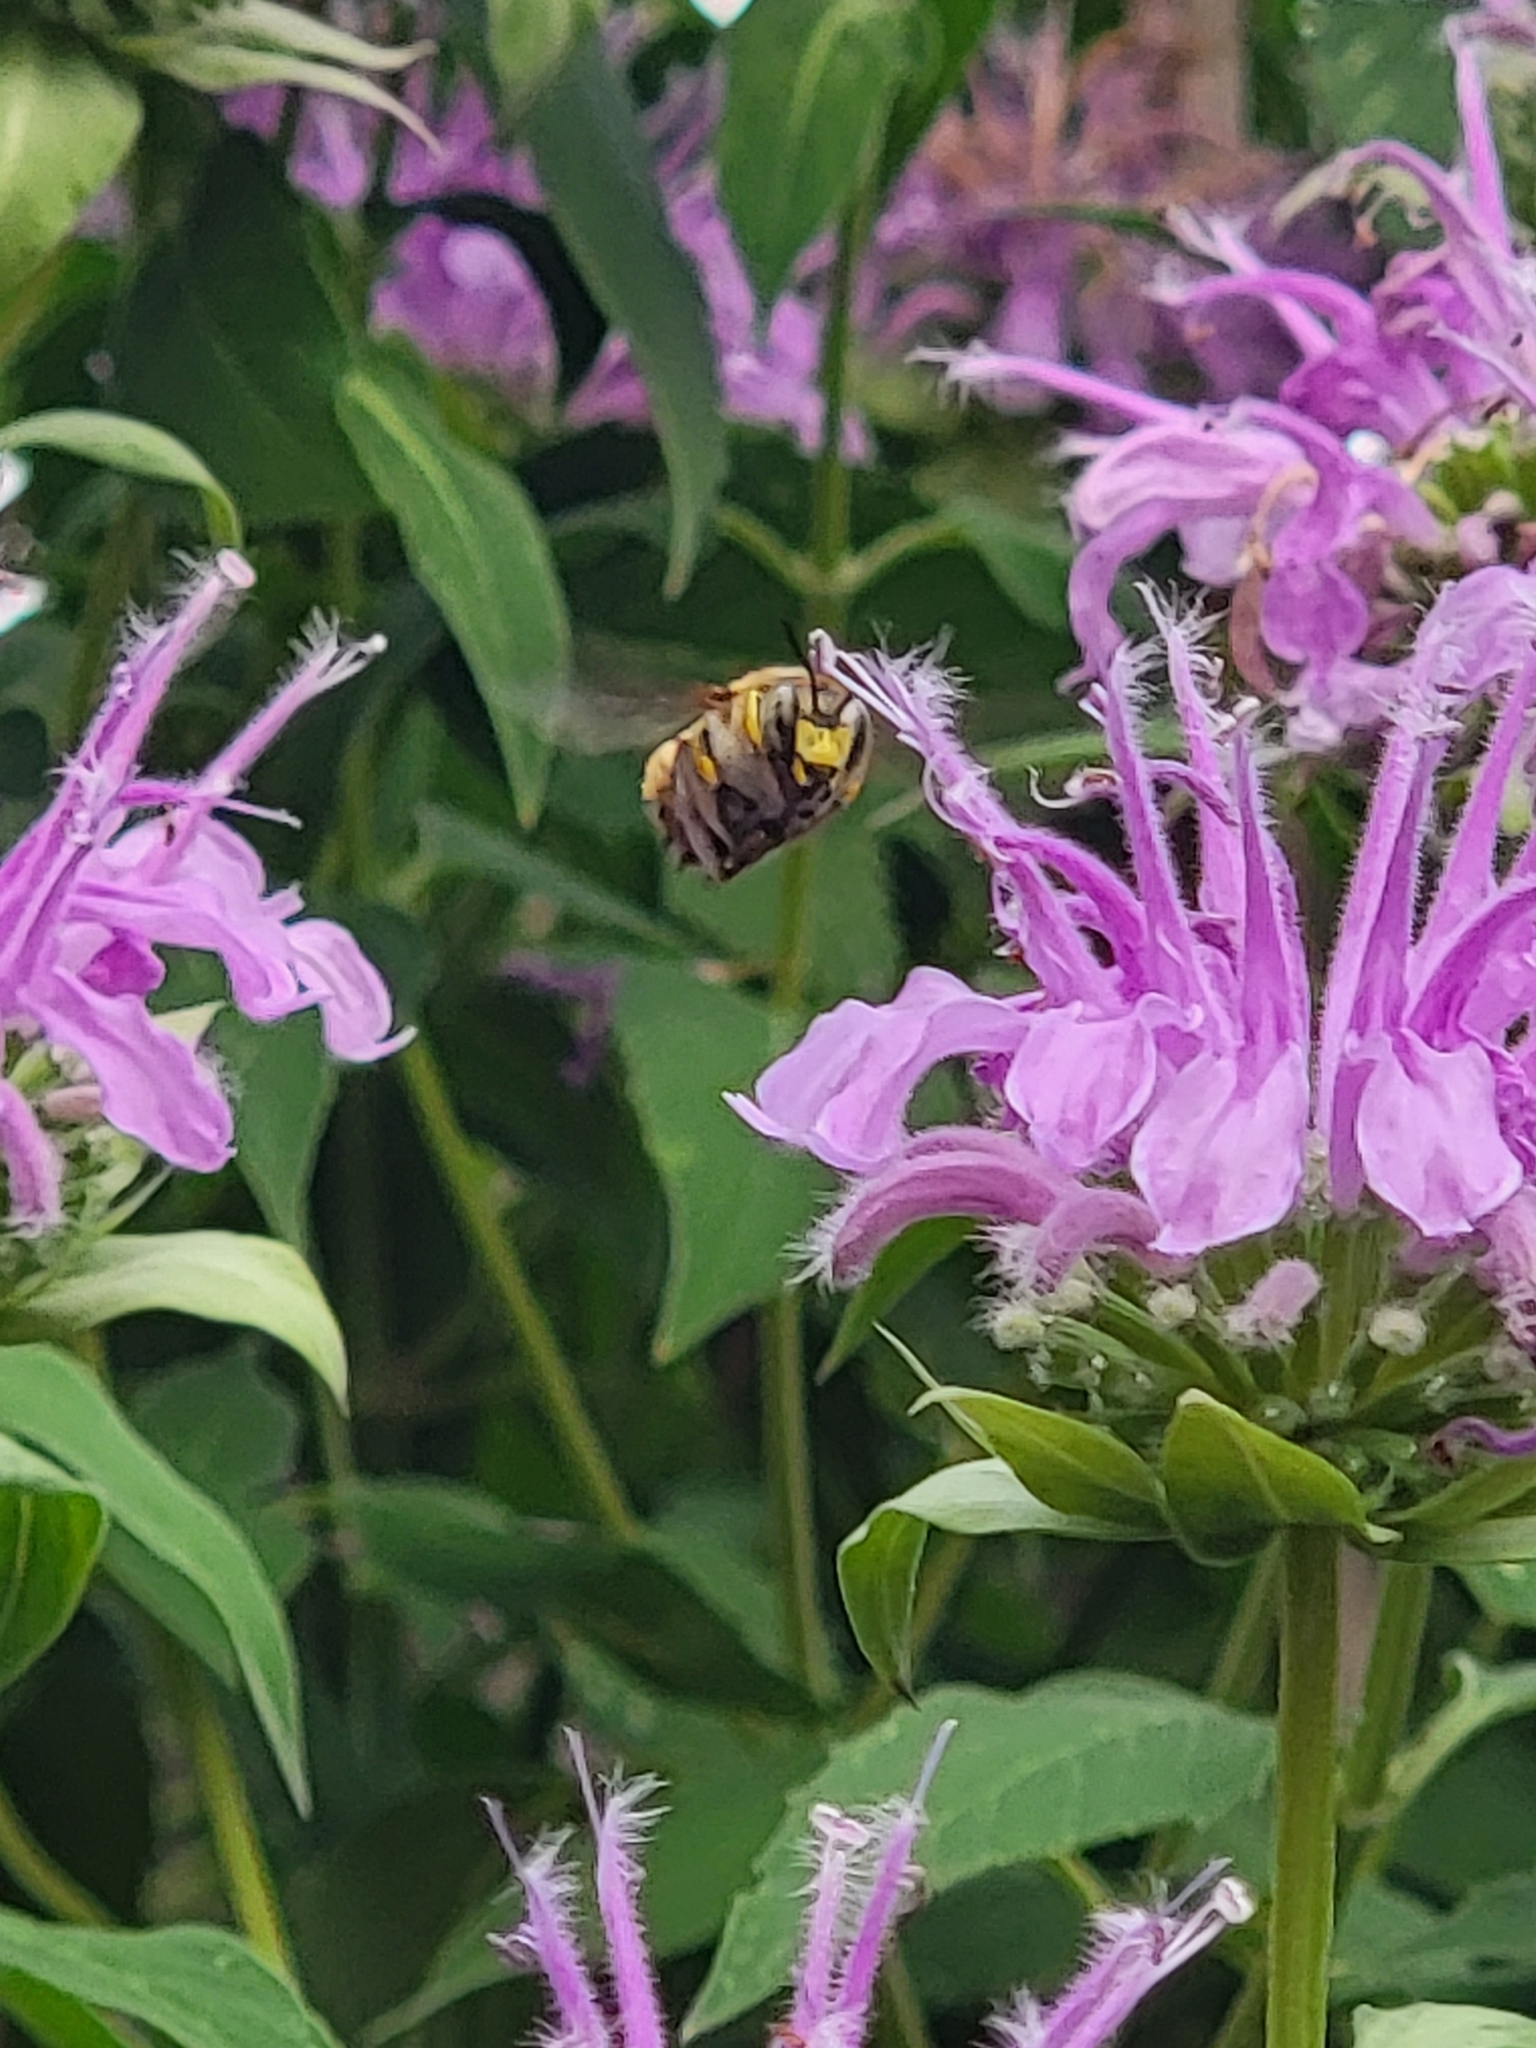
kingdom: Animalia
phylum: Arthropoda
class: Insecta
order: Hymenoptera
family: Megachilidae
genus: Anthidium
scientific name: Anthidium manicatum
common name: Wool carder bee
